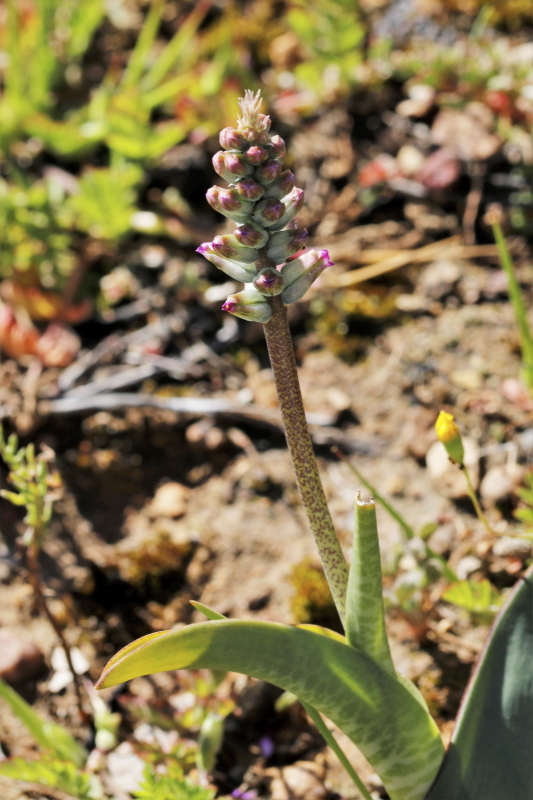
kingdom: Plantae
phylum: Tracheophyta
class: Liliopsida
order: Asparagales
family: Asparagaceae
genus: Lachenalia
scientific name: Lachenalia obscura
